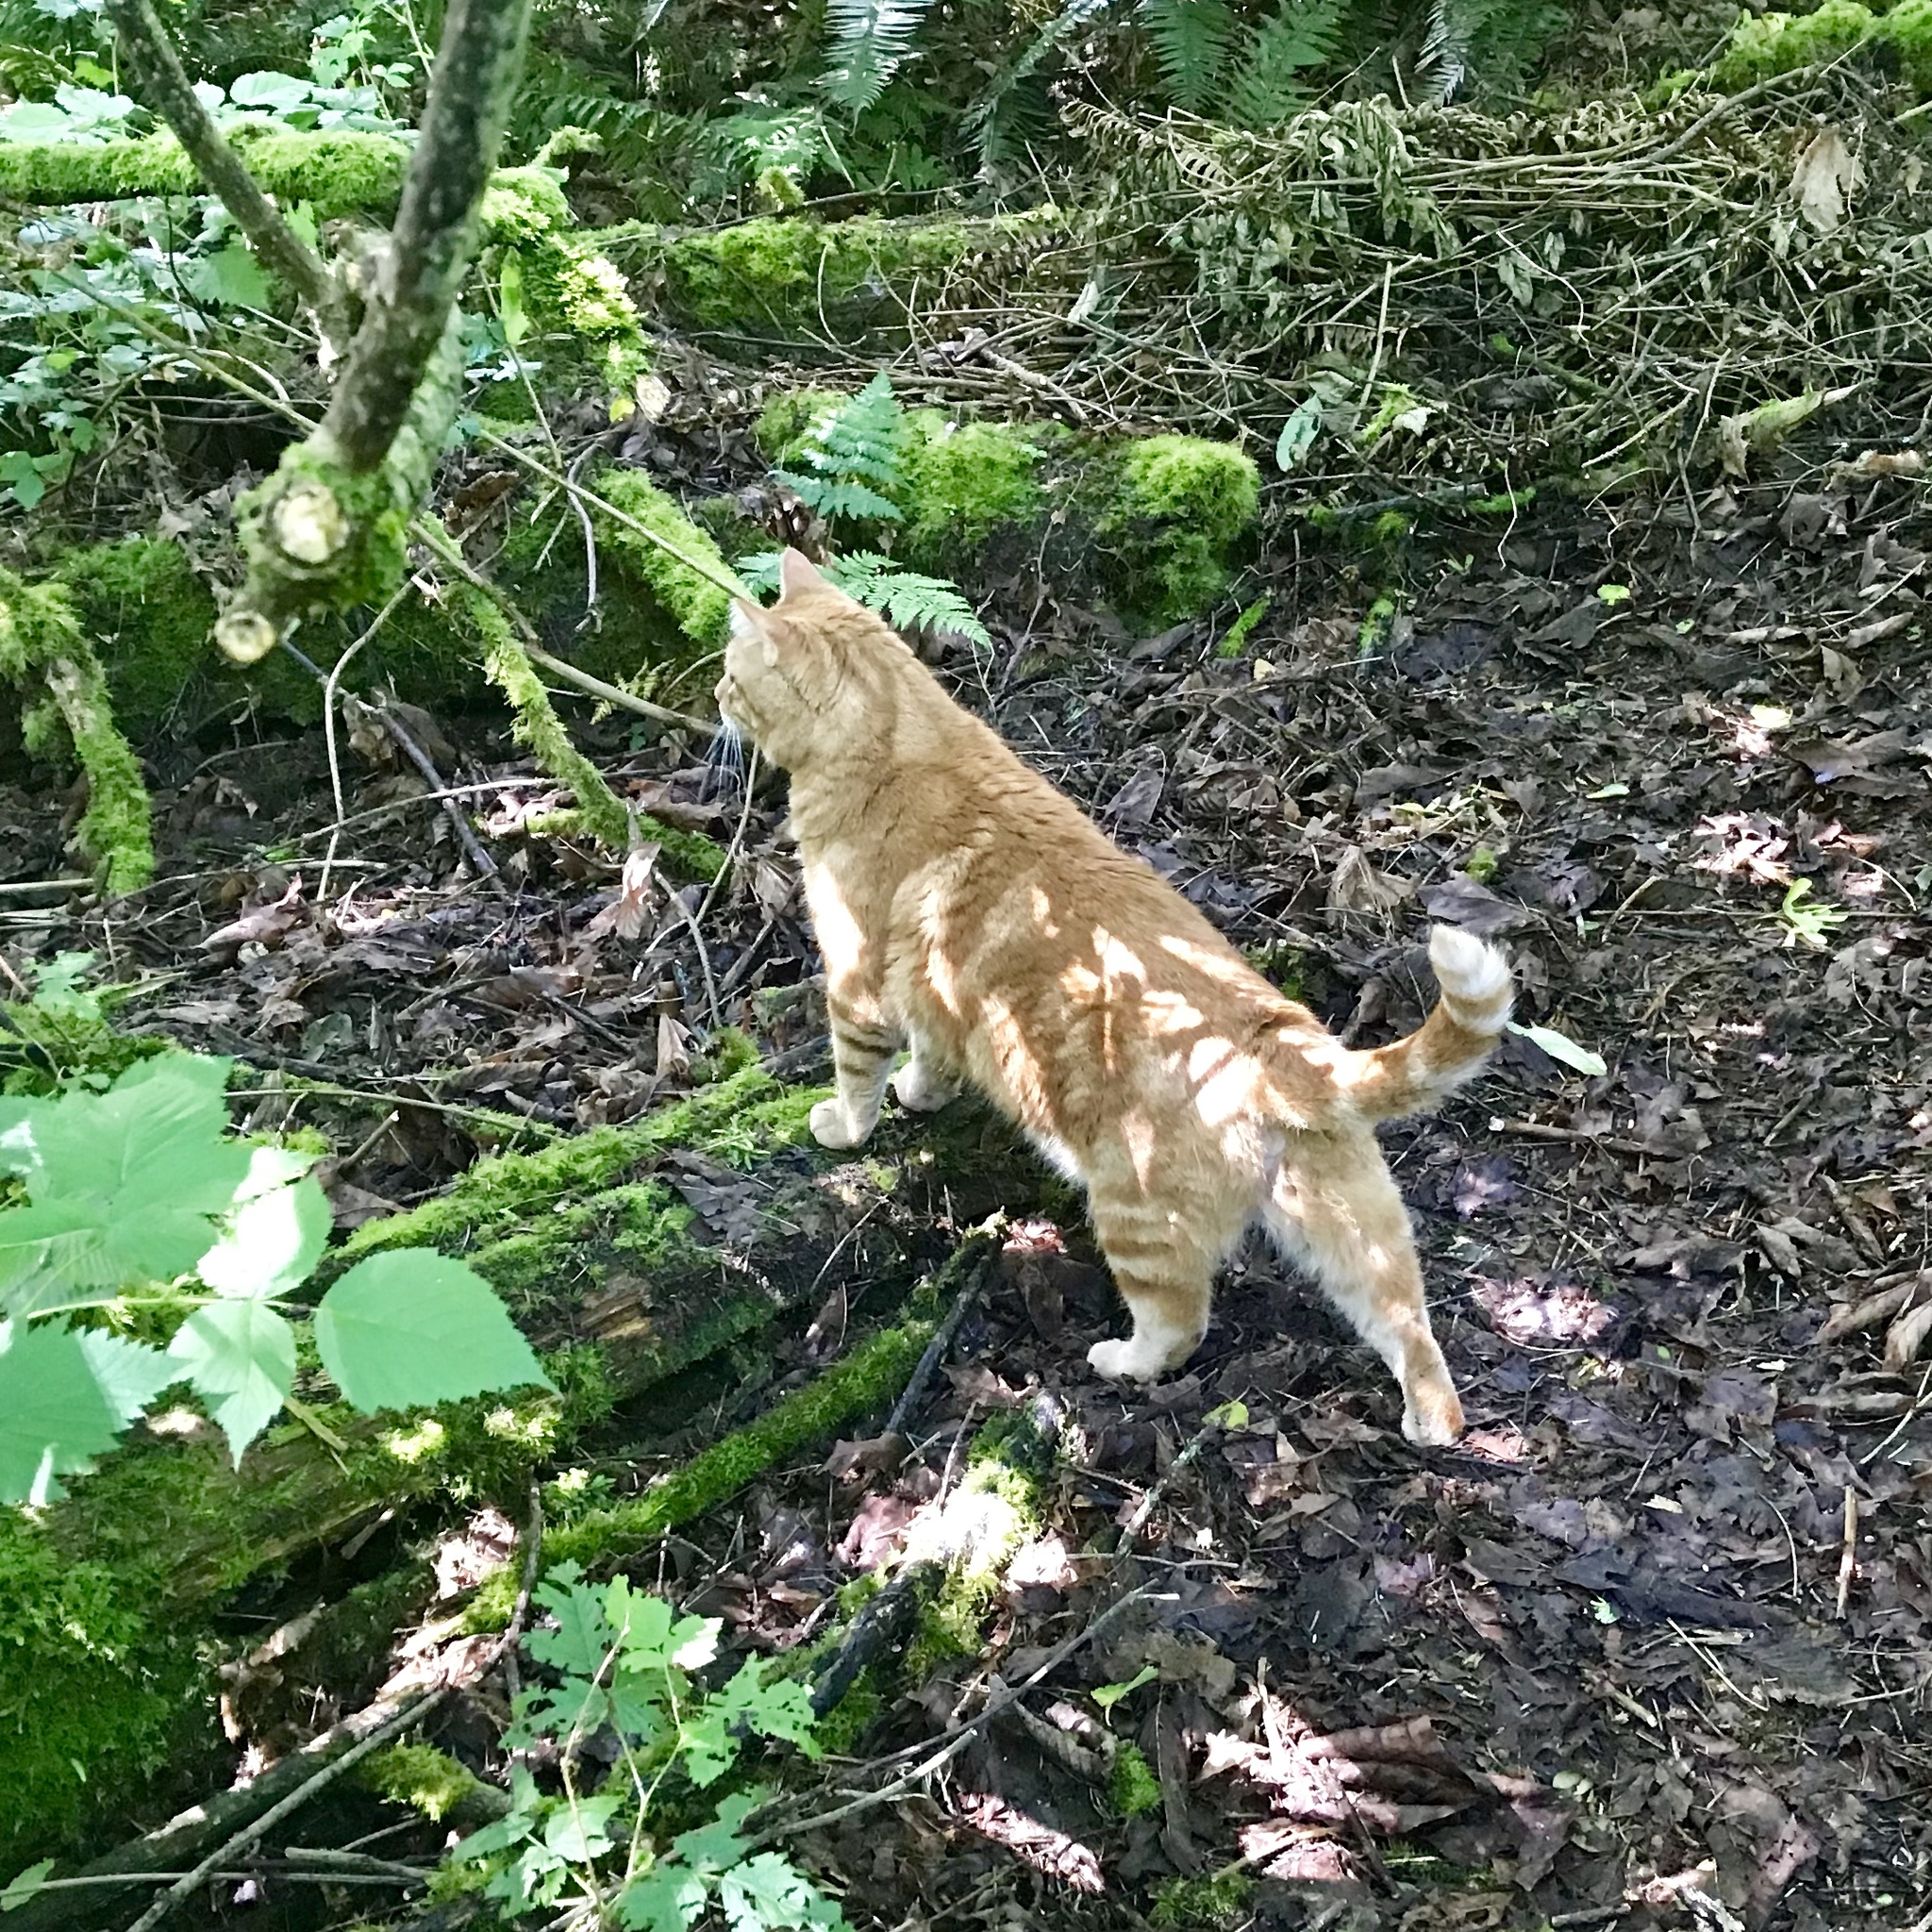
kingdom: Animalia
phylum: Chordata
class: Mammalia
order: Carnivora
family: Felidae
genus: Felis
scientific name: Felis catus
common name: Domestic cat
